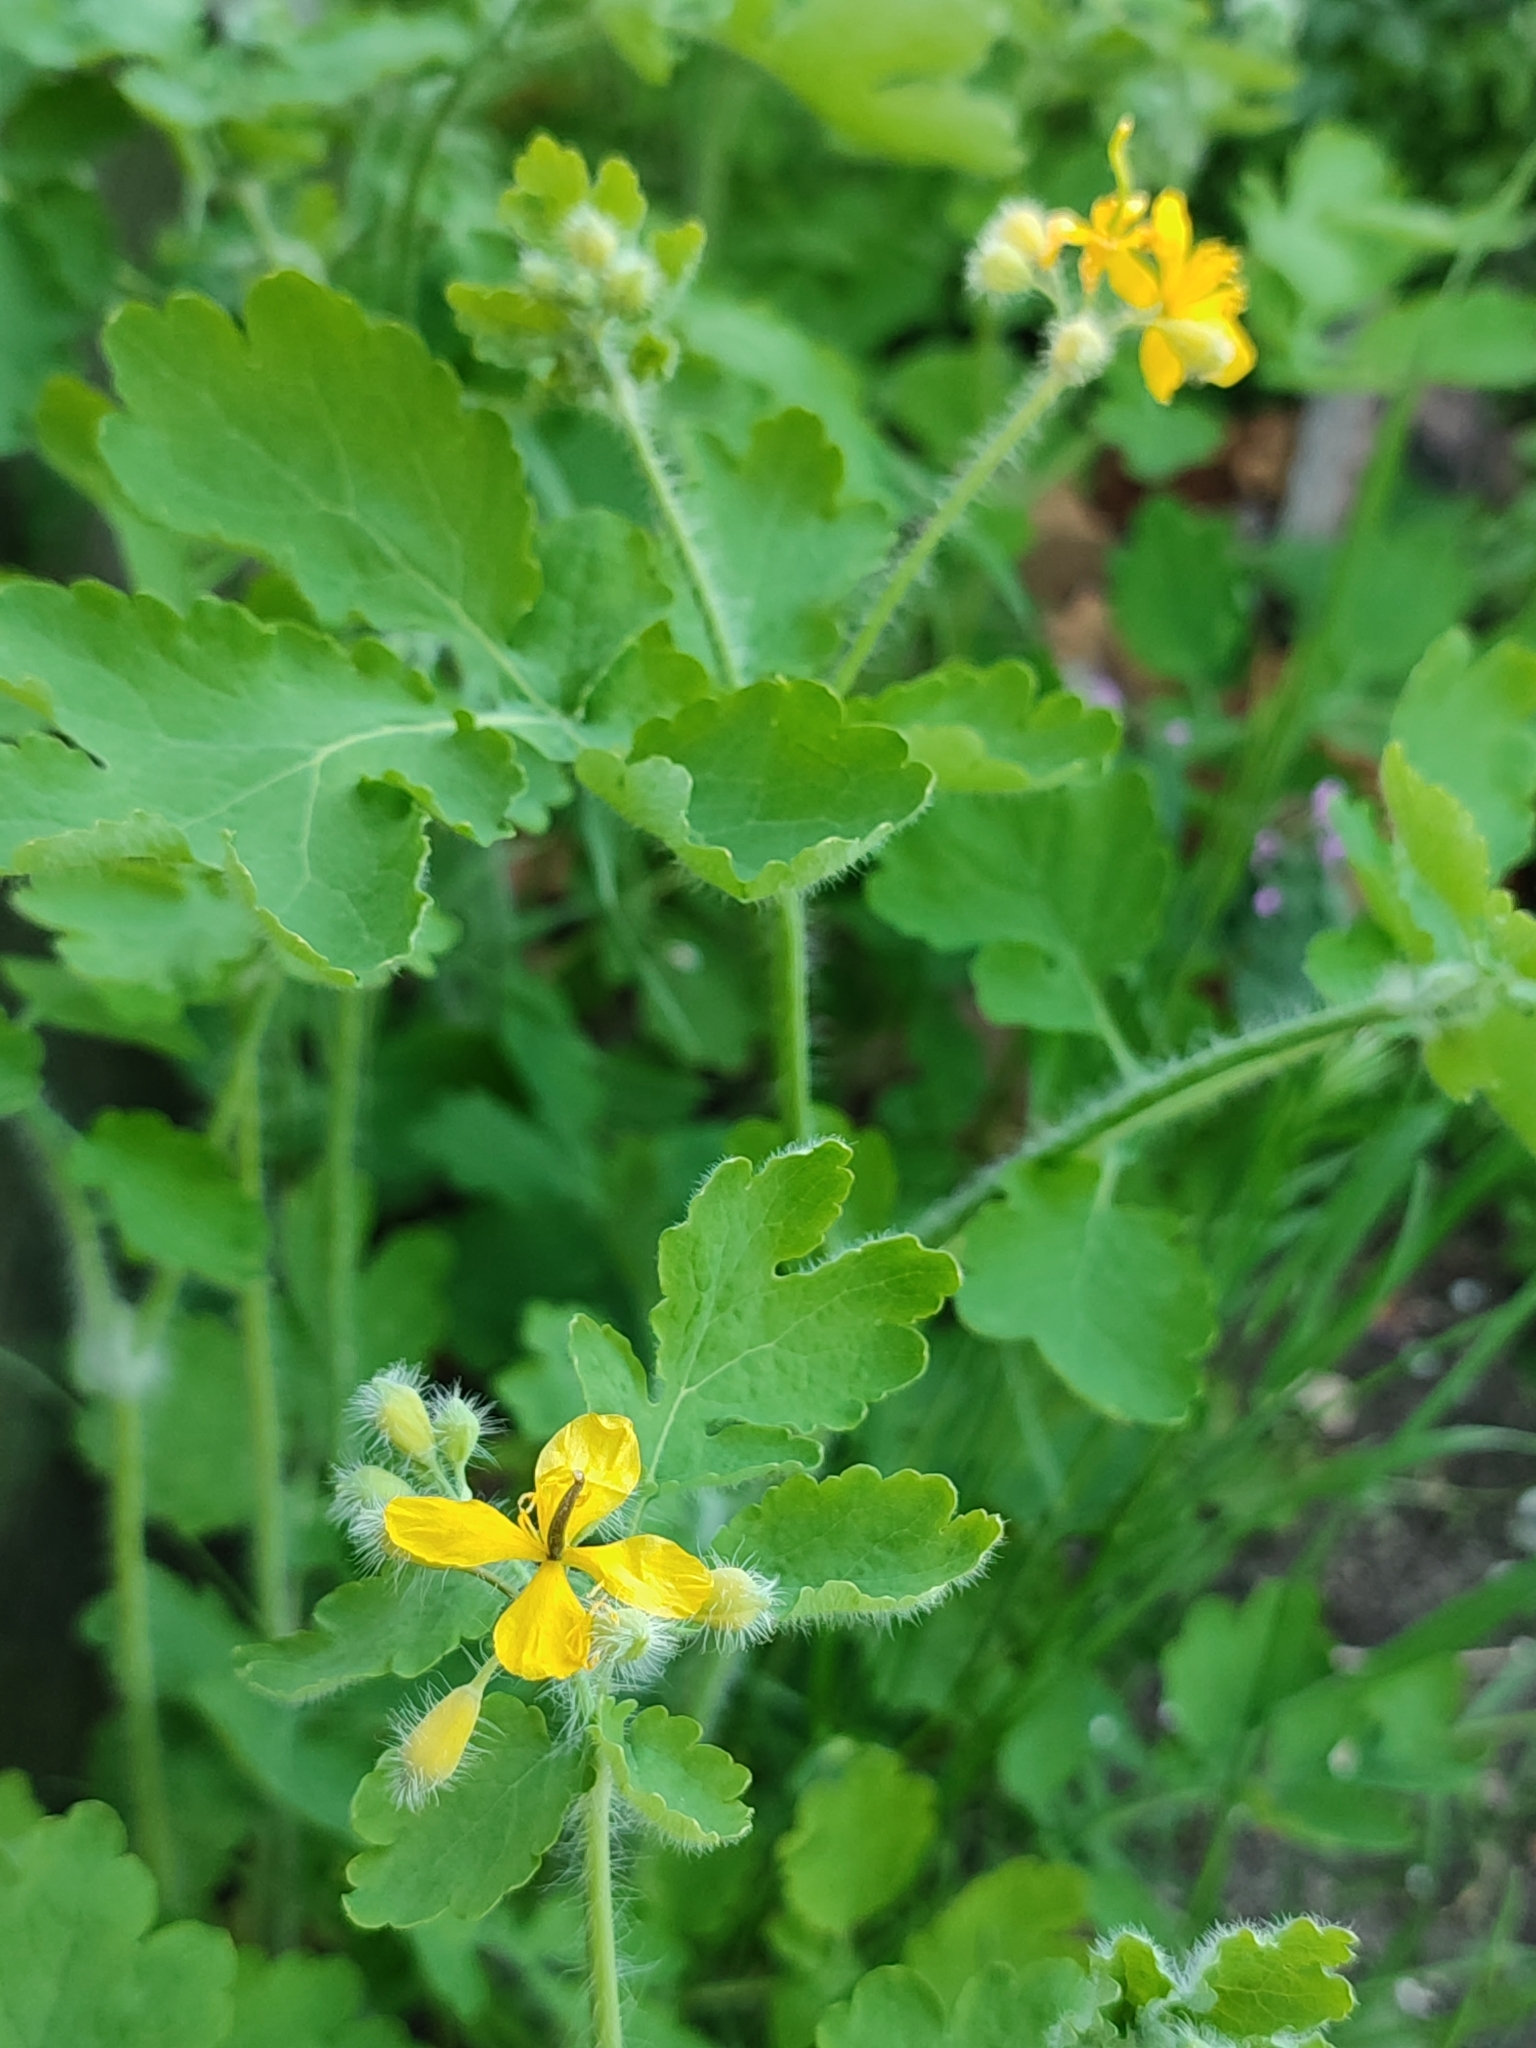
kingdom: Plantae
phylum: Tracheophyta
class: Magnoliopsida
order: Ranunculales
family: Papaveraceae
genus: Chelidonium
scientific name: Chelidonium majus
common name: Greater celandine
